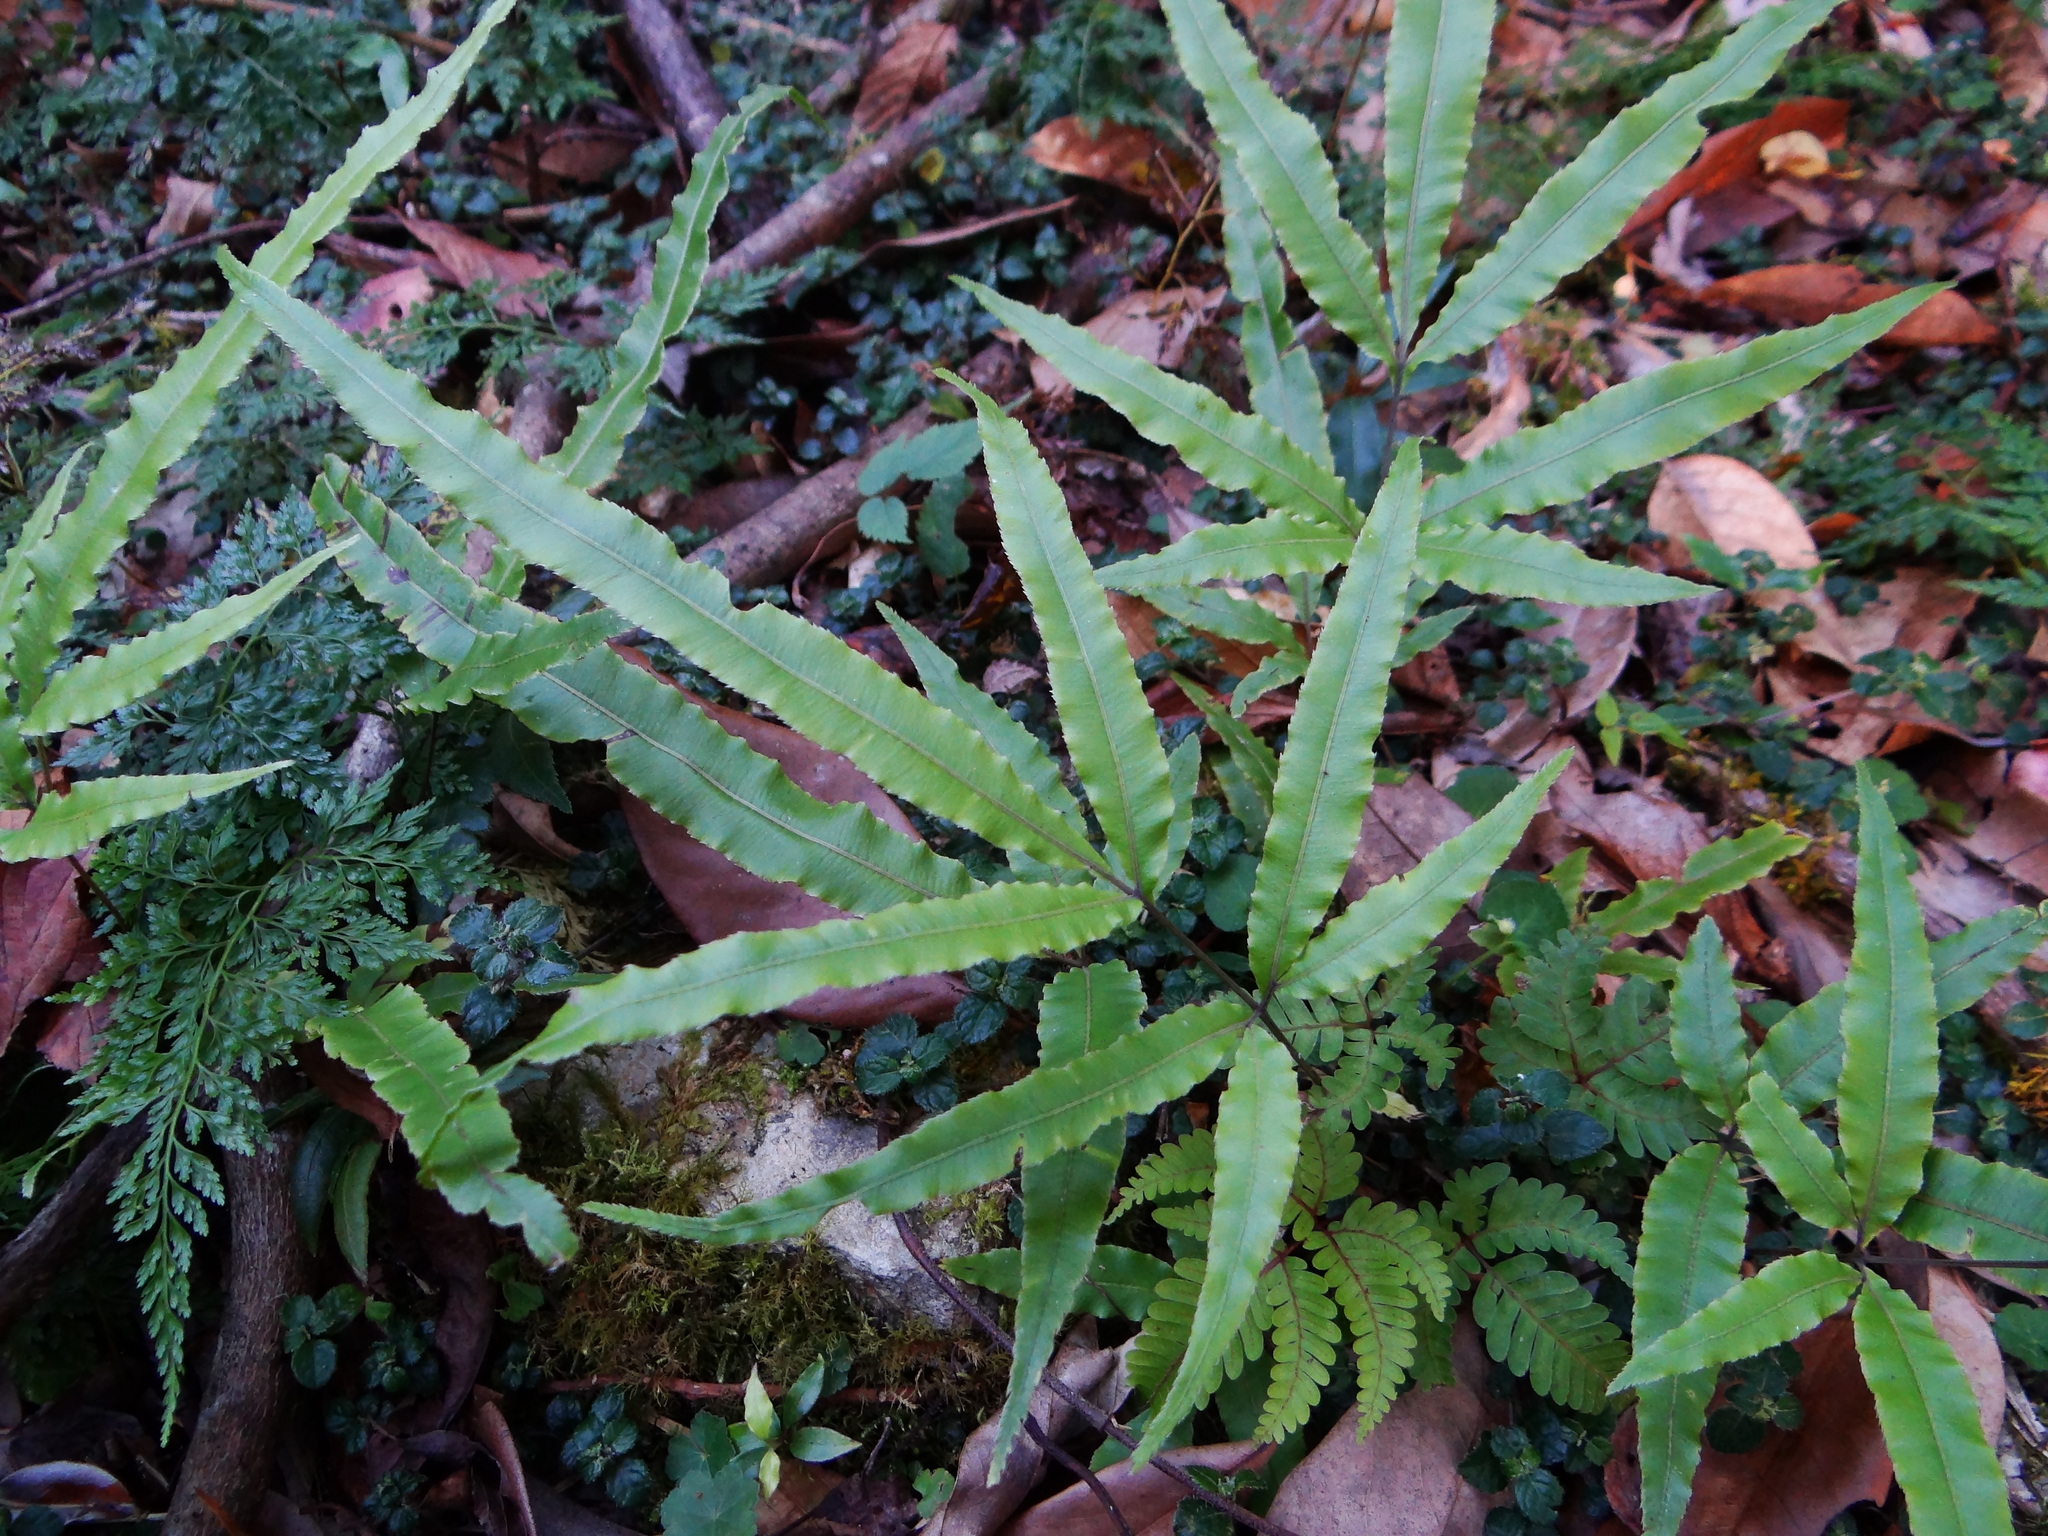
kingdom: Plantae
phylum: Tracheophyta
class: Polypodiopsida
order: Polypodiales
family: Pteridaceae
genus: Pteris
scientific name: Pteris cretica
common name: Ribbon fern
